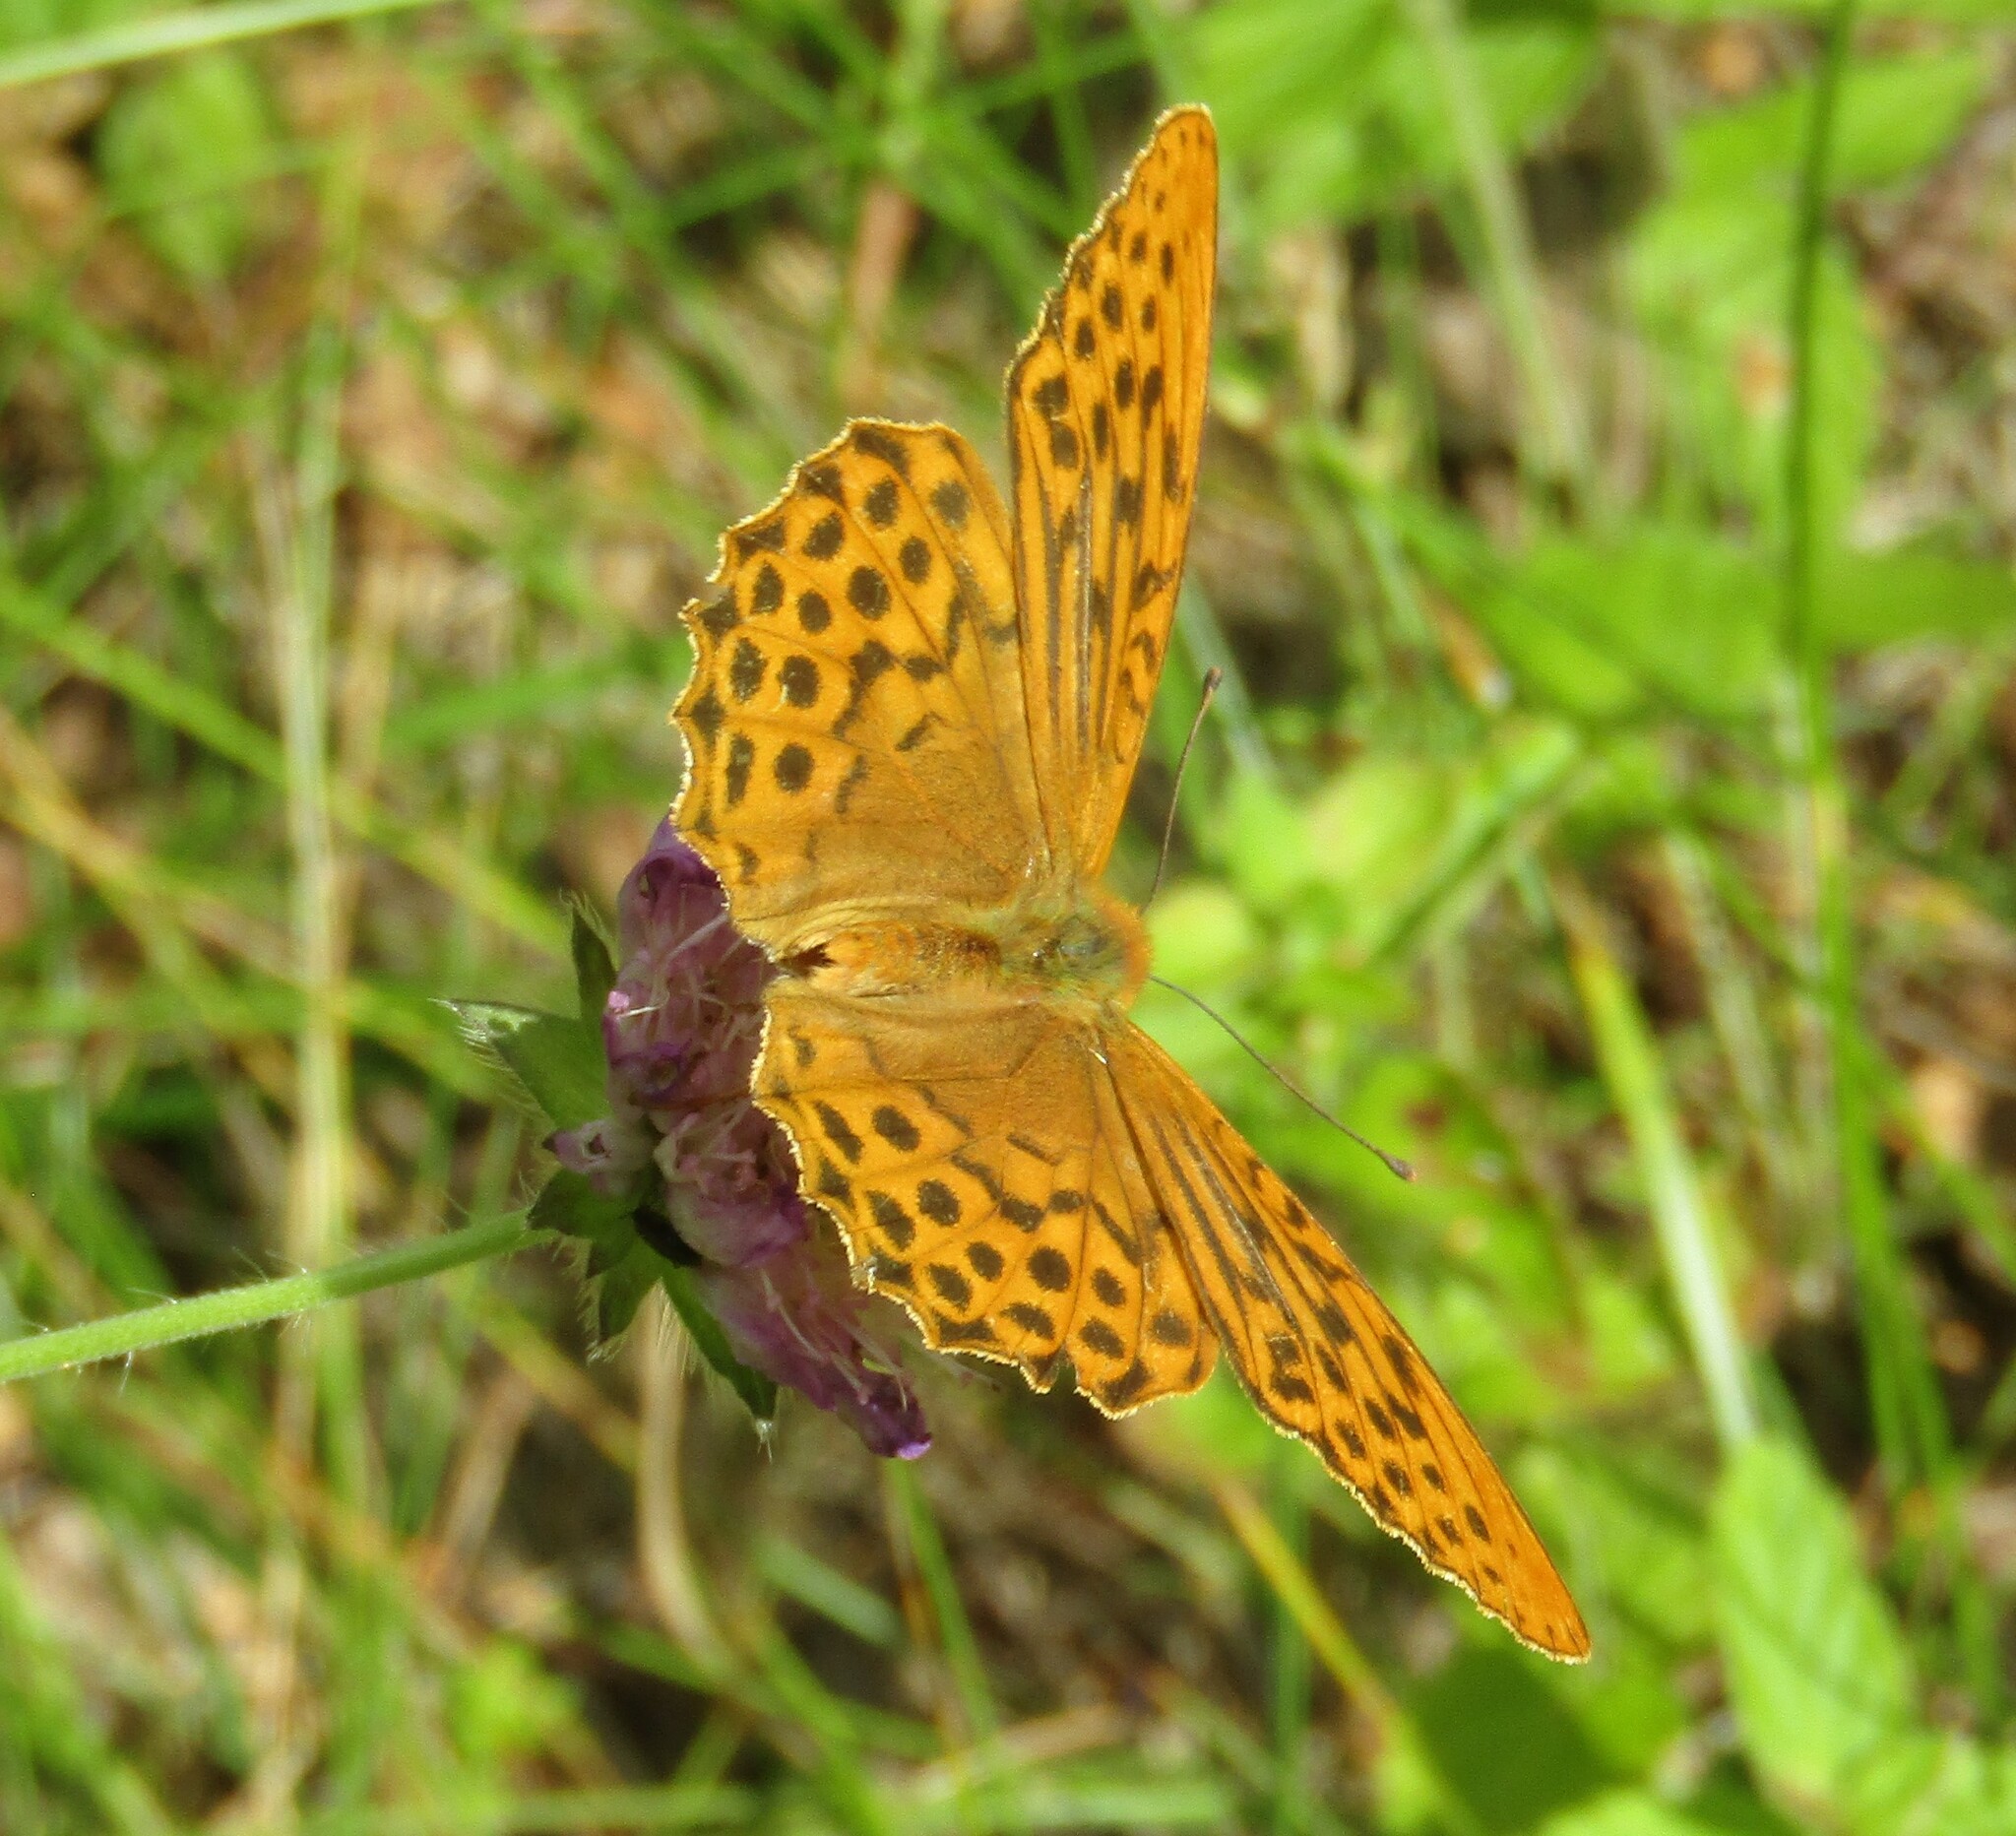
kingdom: Animalia
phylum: Arthropoda
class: Insecta
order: Lepidoptera
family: Nymphalidae
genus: Argynnis
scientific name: Argynnis paphia
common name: Silver-washed fritillary
